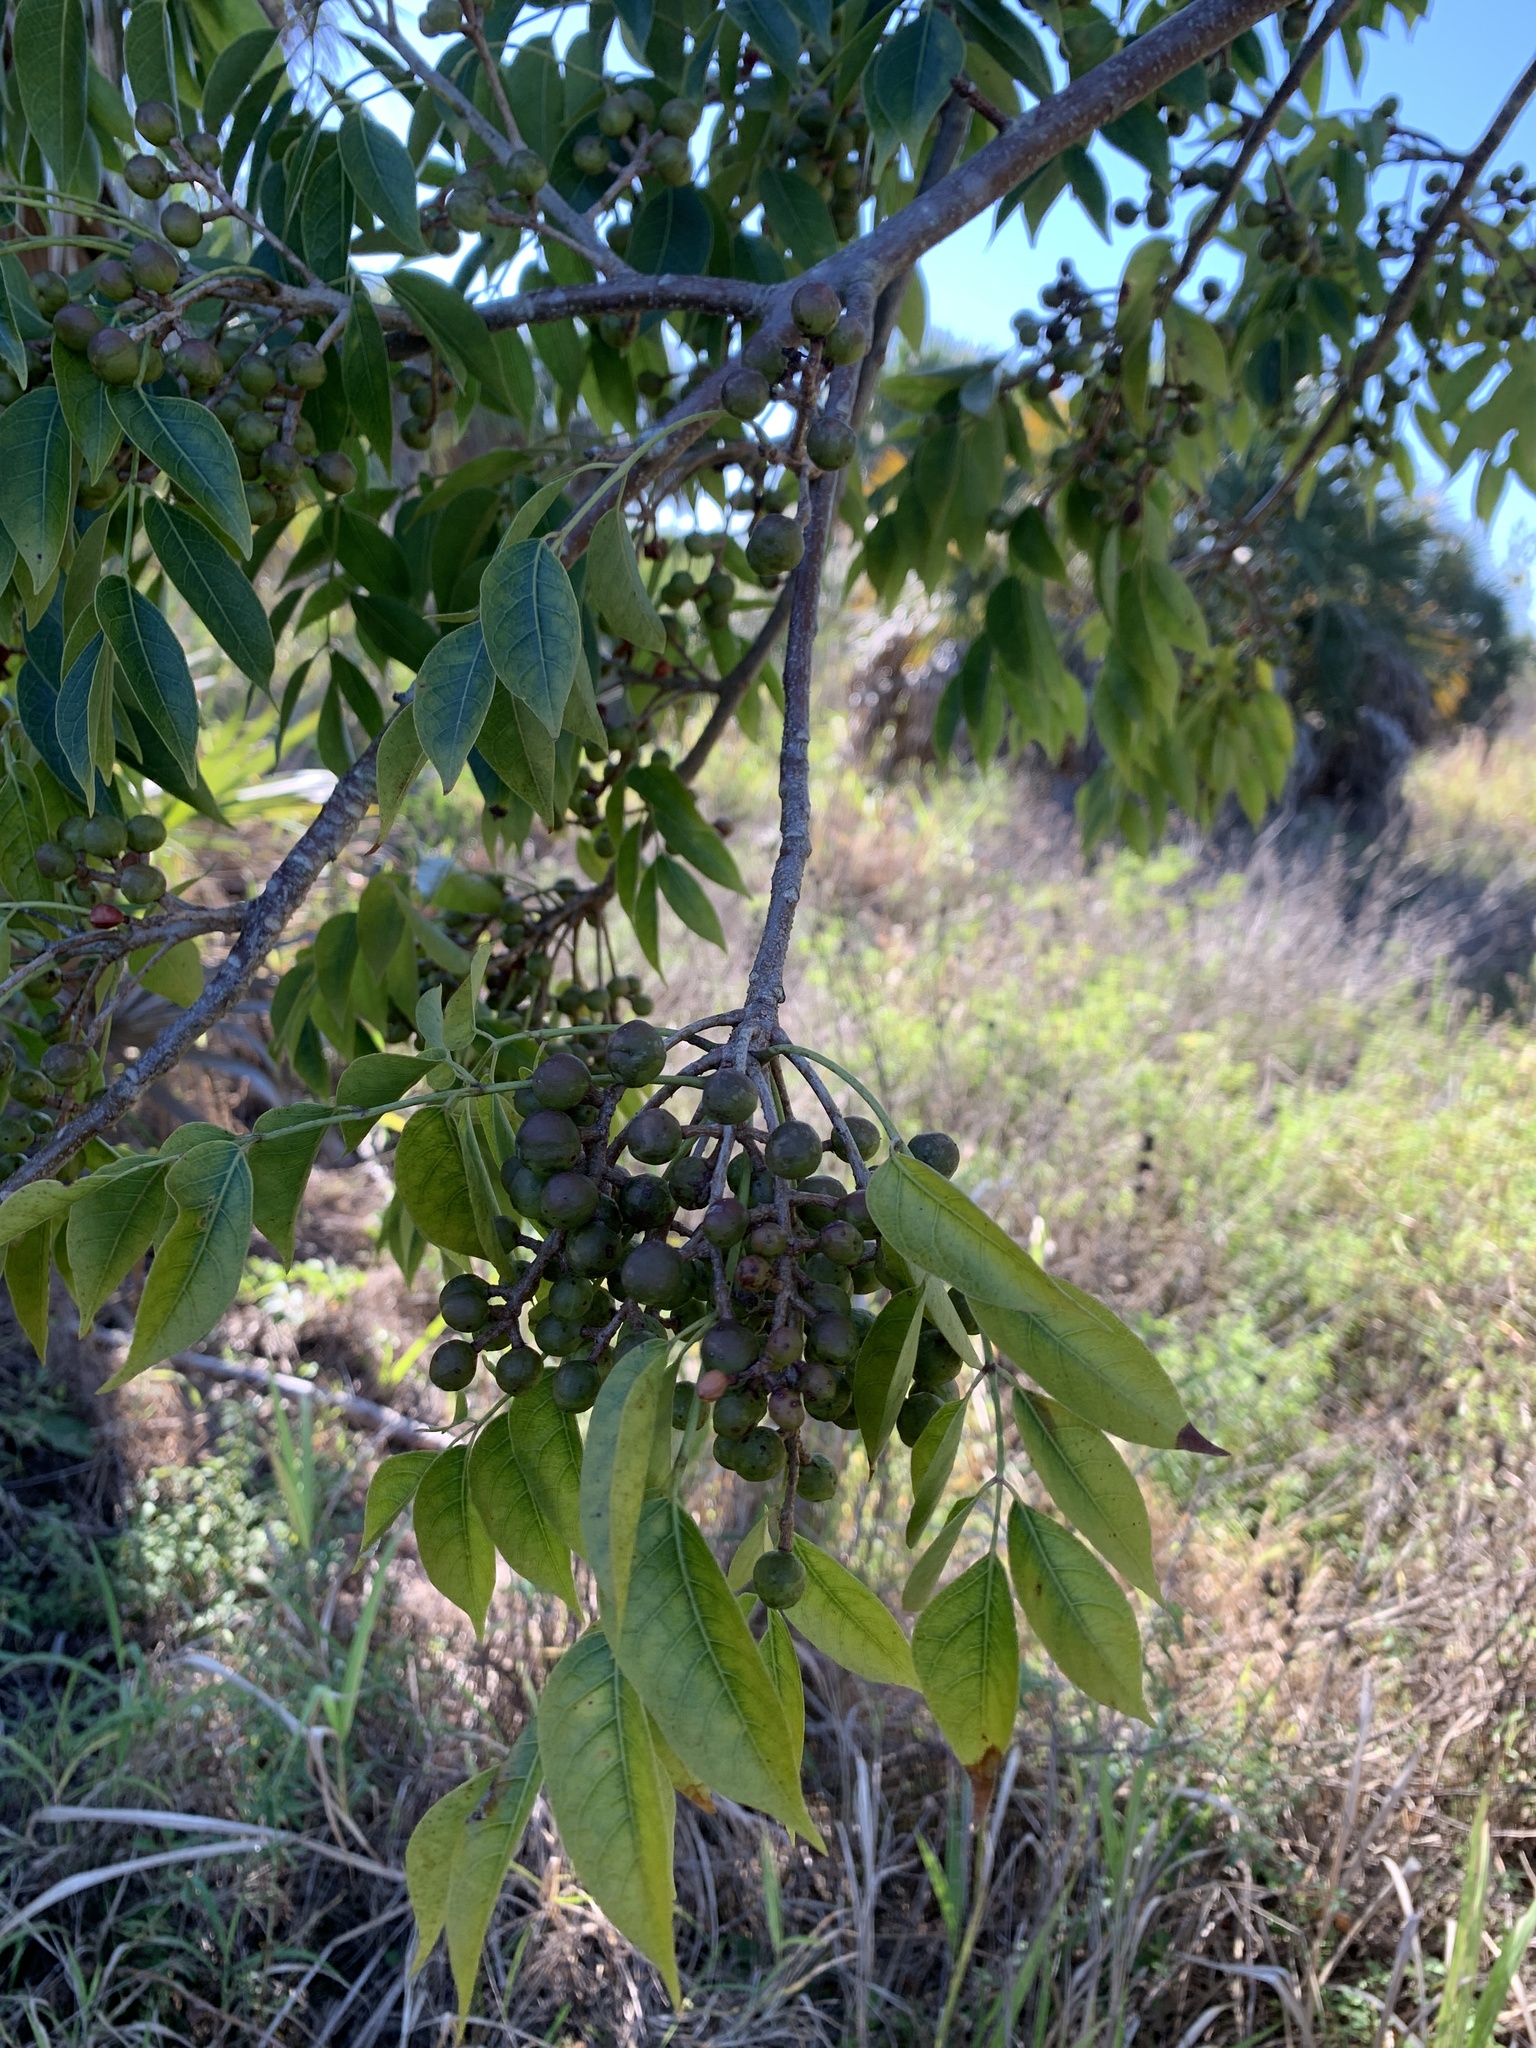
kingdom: Plantae
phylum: Tracheophyta
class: Magnoliopsida
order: Sapindales
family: Burseraceae
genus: Bursera
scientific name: Bursera simaruba
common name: Turpentine tree
